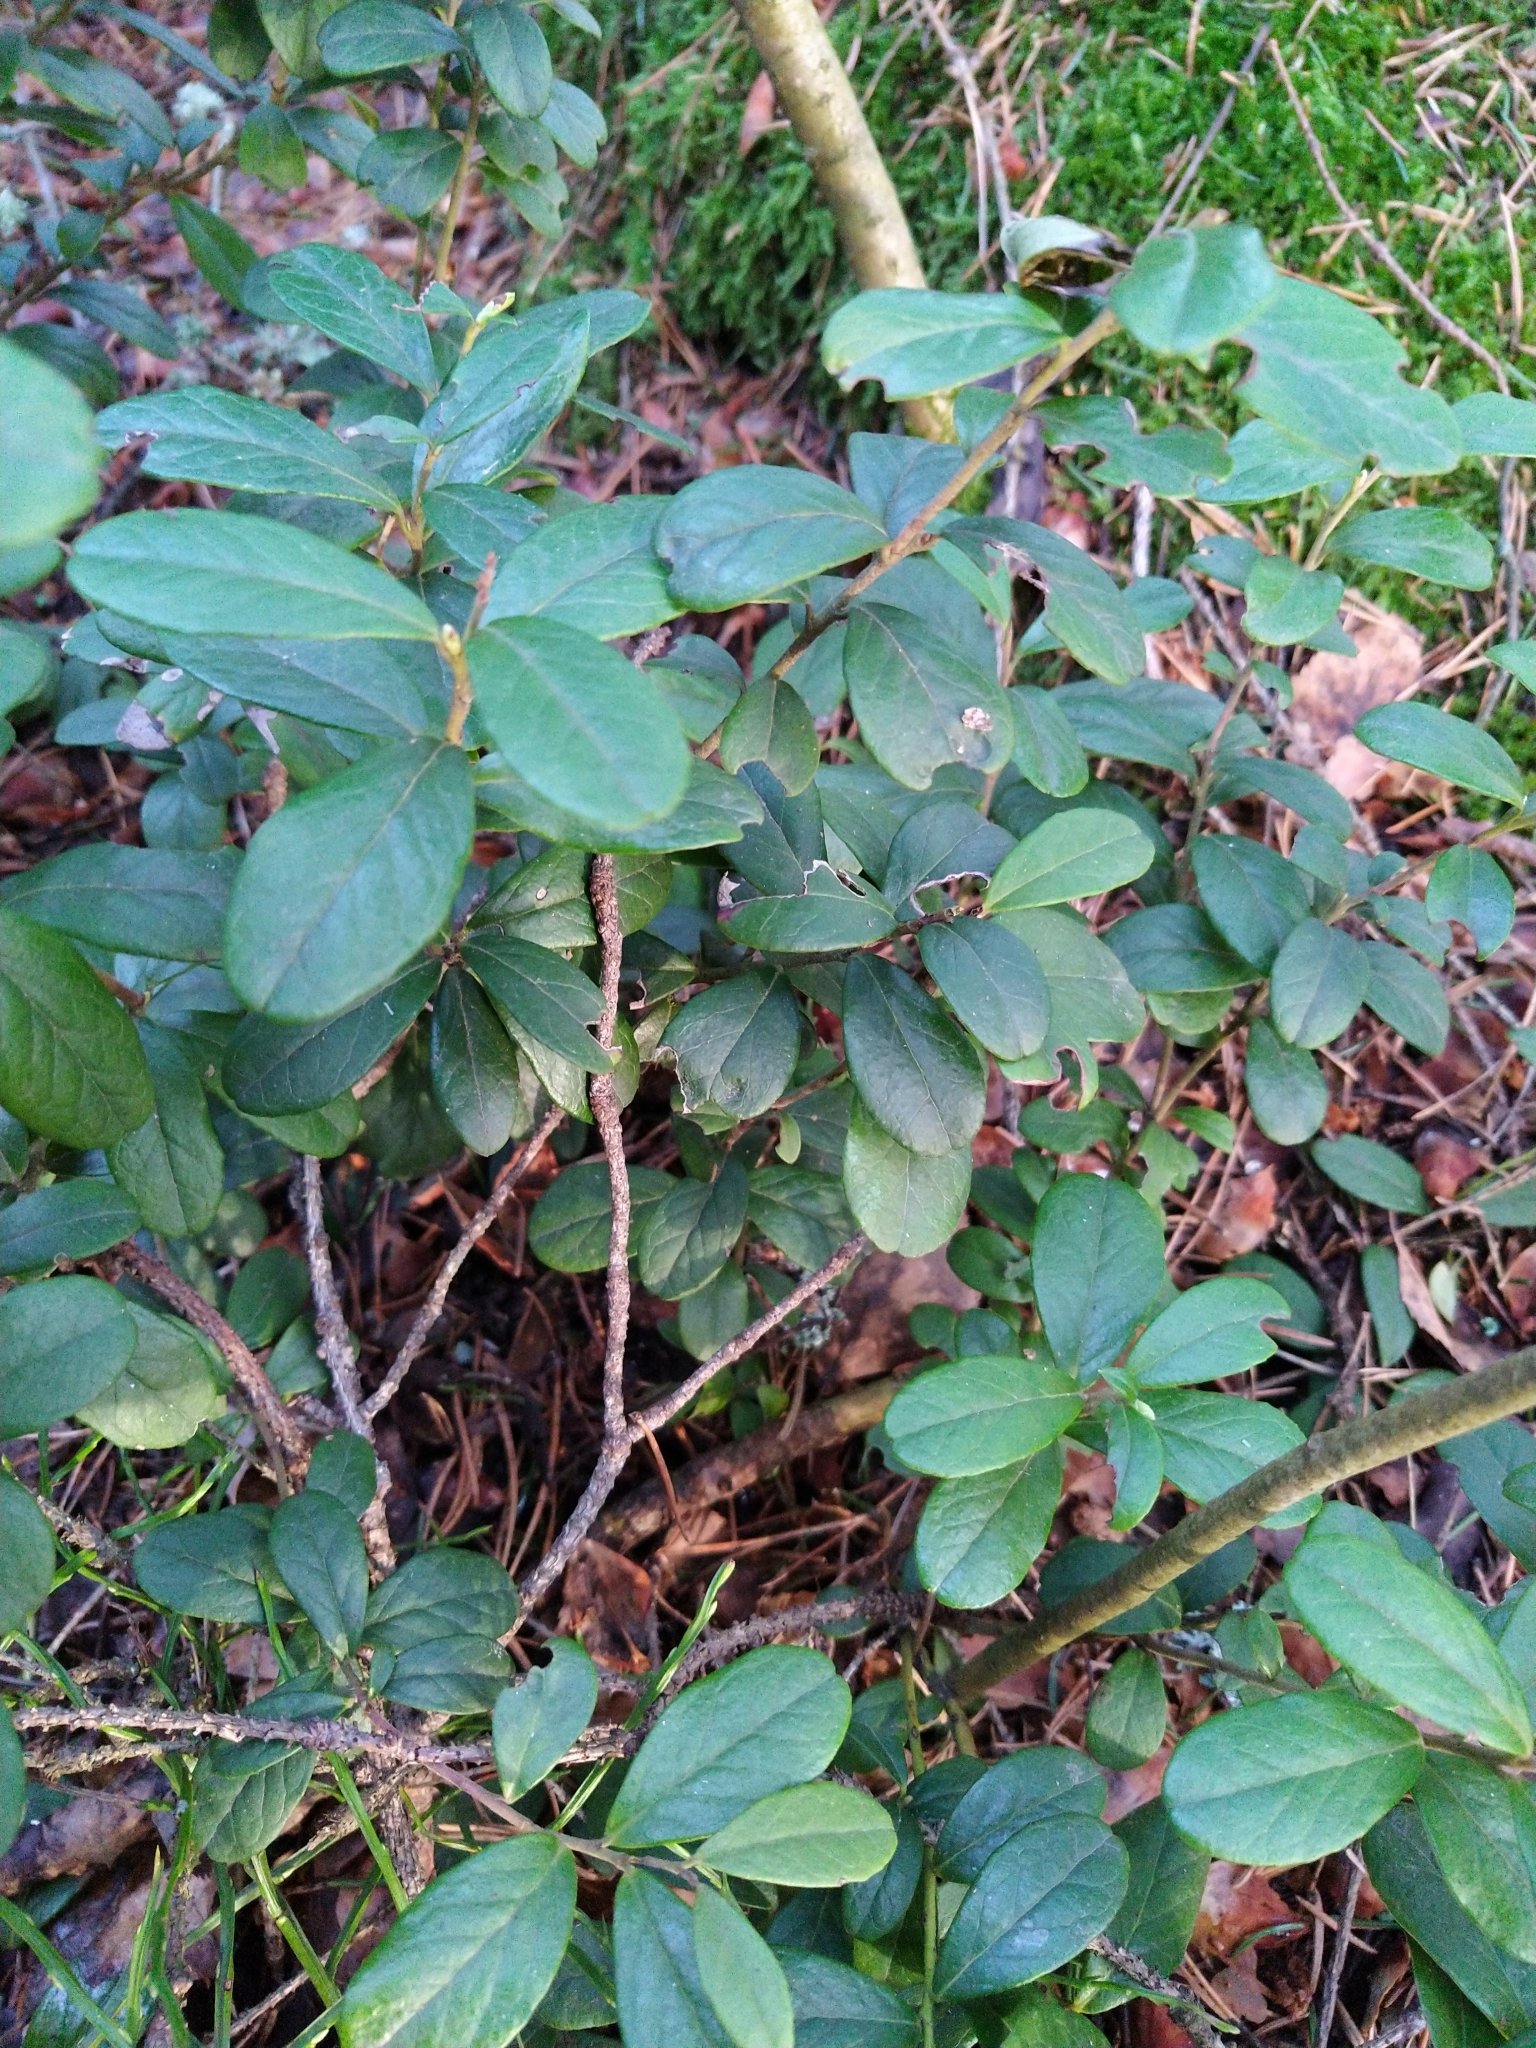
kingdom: Plantae
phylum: Tracheophyta
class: Magnoliopsida
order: Ericales
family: Ericaceae
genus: Vaccinium
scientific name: Vaccinium vitis-idaea
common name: Cowberry
